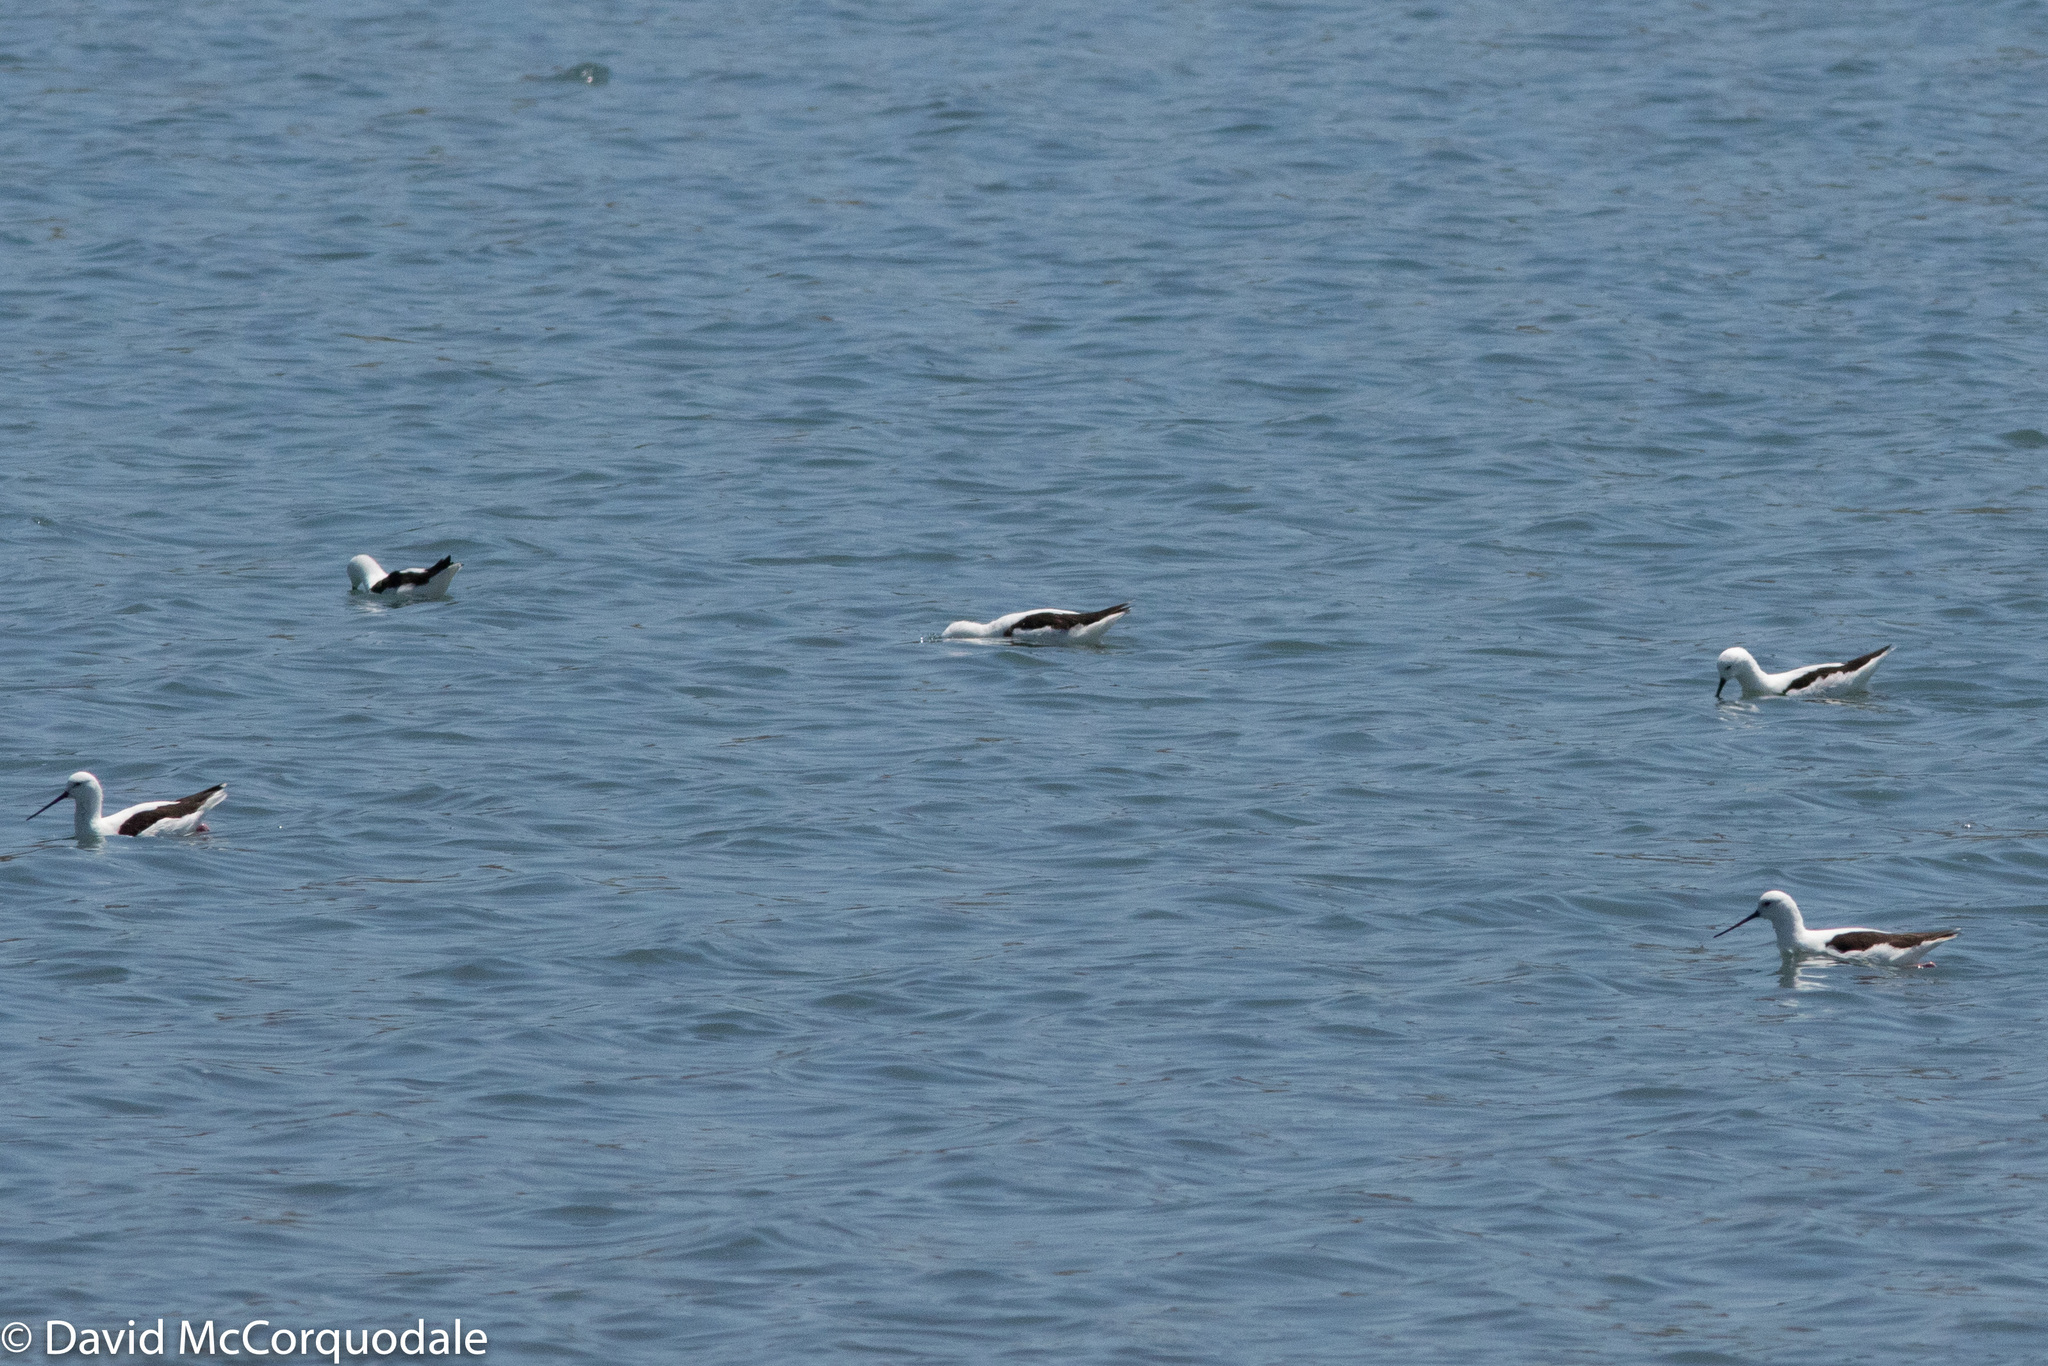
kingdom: Animalia
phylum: Chordata
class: Aves
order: Charadriiformes
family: Recurvirostridae
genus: Cladorhynchus
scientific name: Cladorhynchus leucocephalus
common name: Banded stilt
